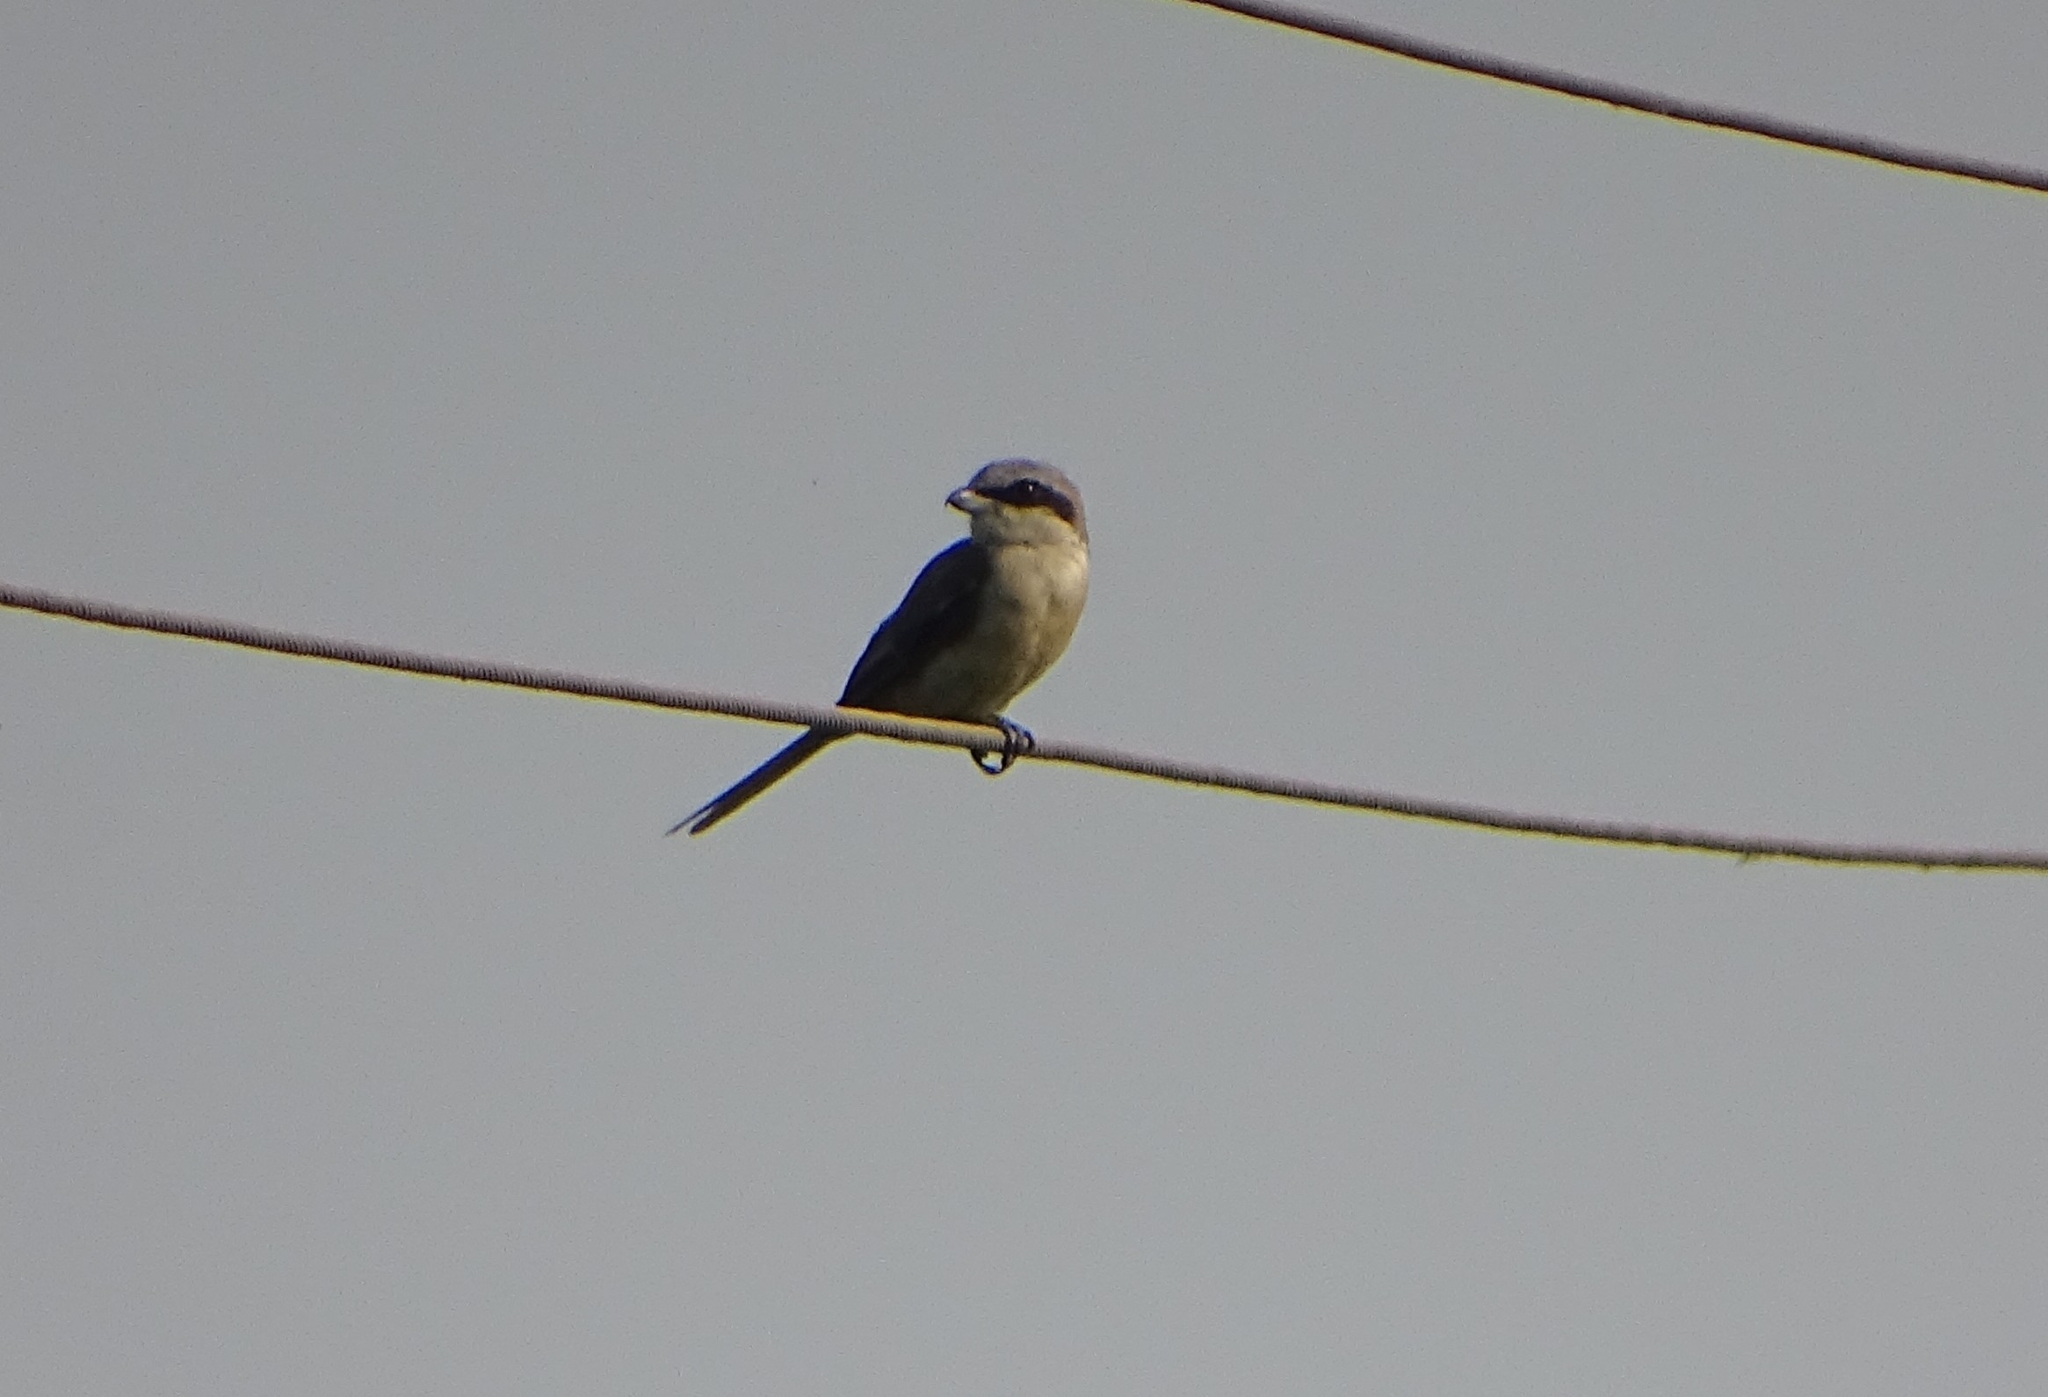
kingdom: Animalia
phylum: Chordata
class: Aves
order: Passeriformes
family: Laniidae
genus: Lanius
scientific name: Lanius cristatus
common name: Brown shrike
